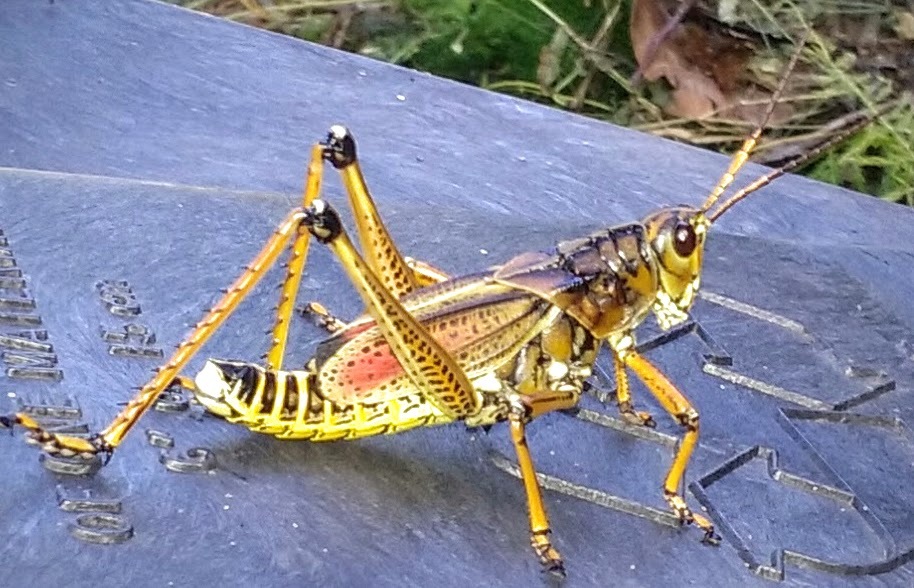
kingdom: Animalia
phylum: Arthropoda
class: Insecta
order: Orthoptera
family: Romaleidae
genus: Romalea
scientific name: Romalea microptera
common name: Eastern lubber grasshopper
